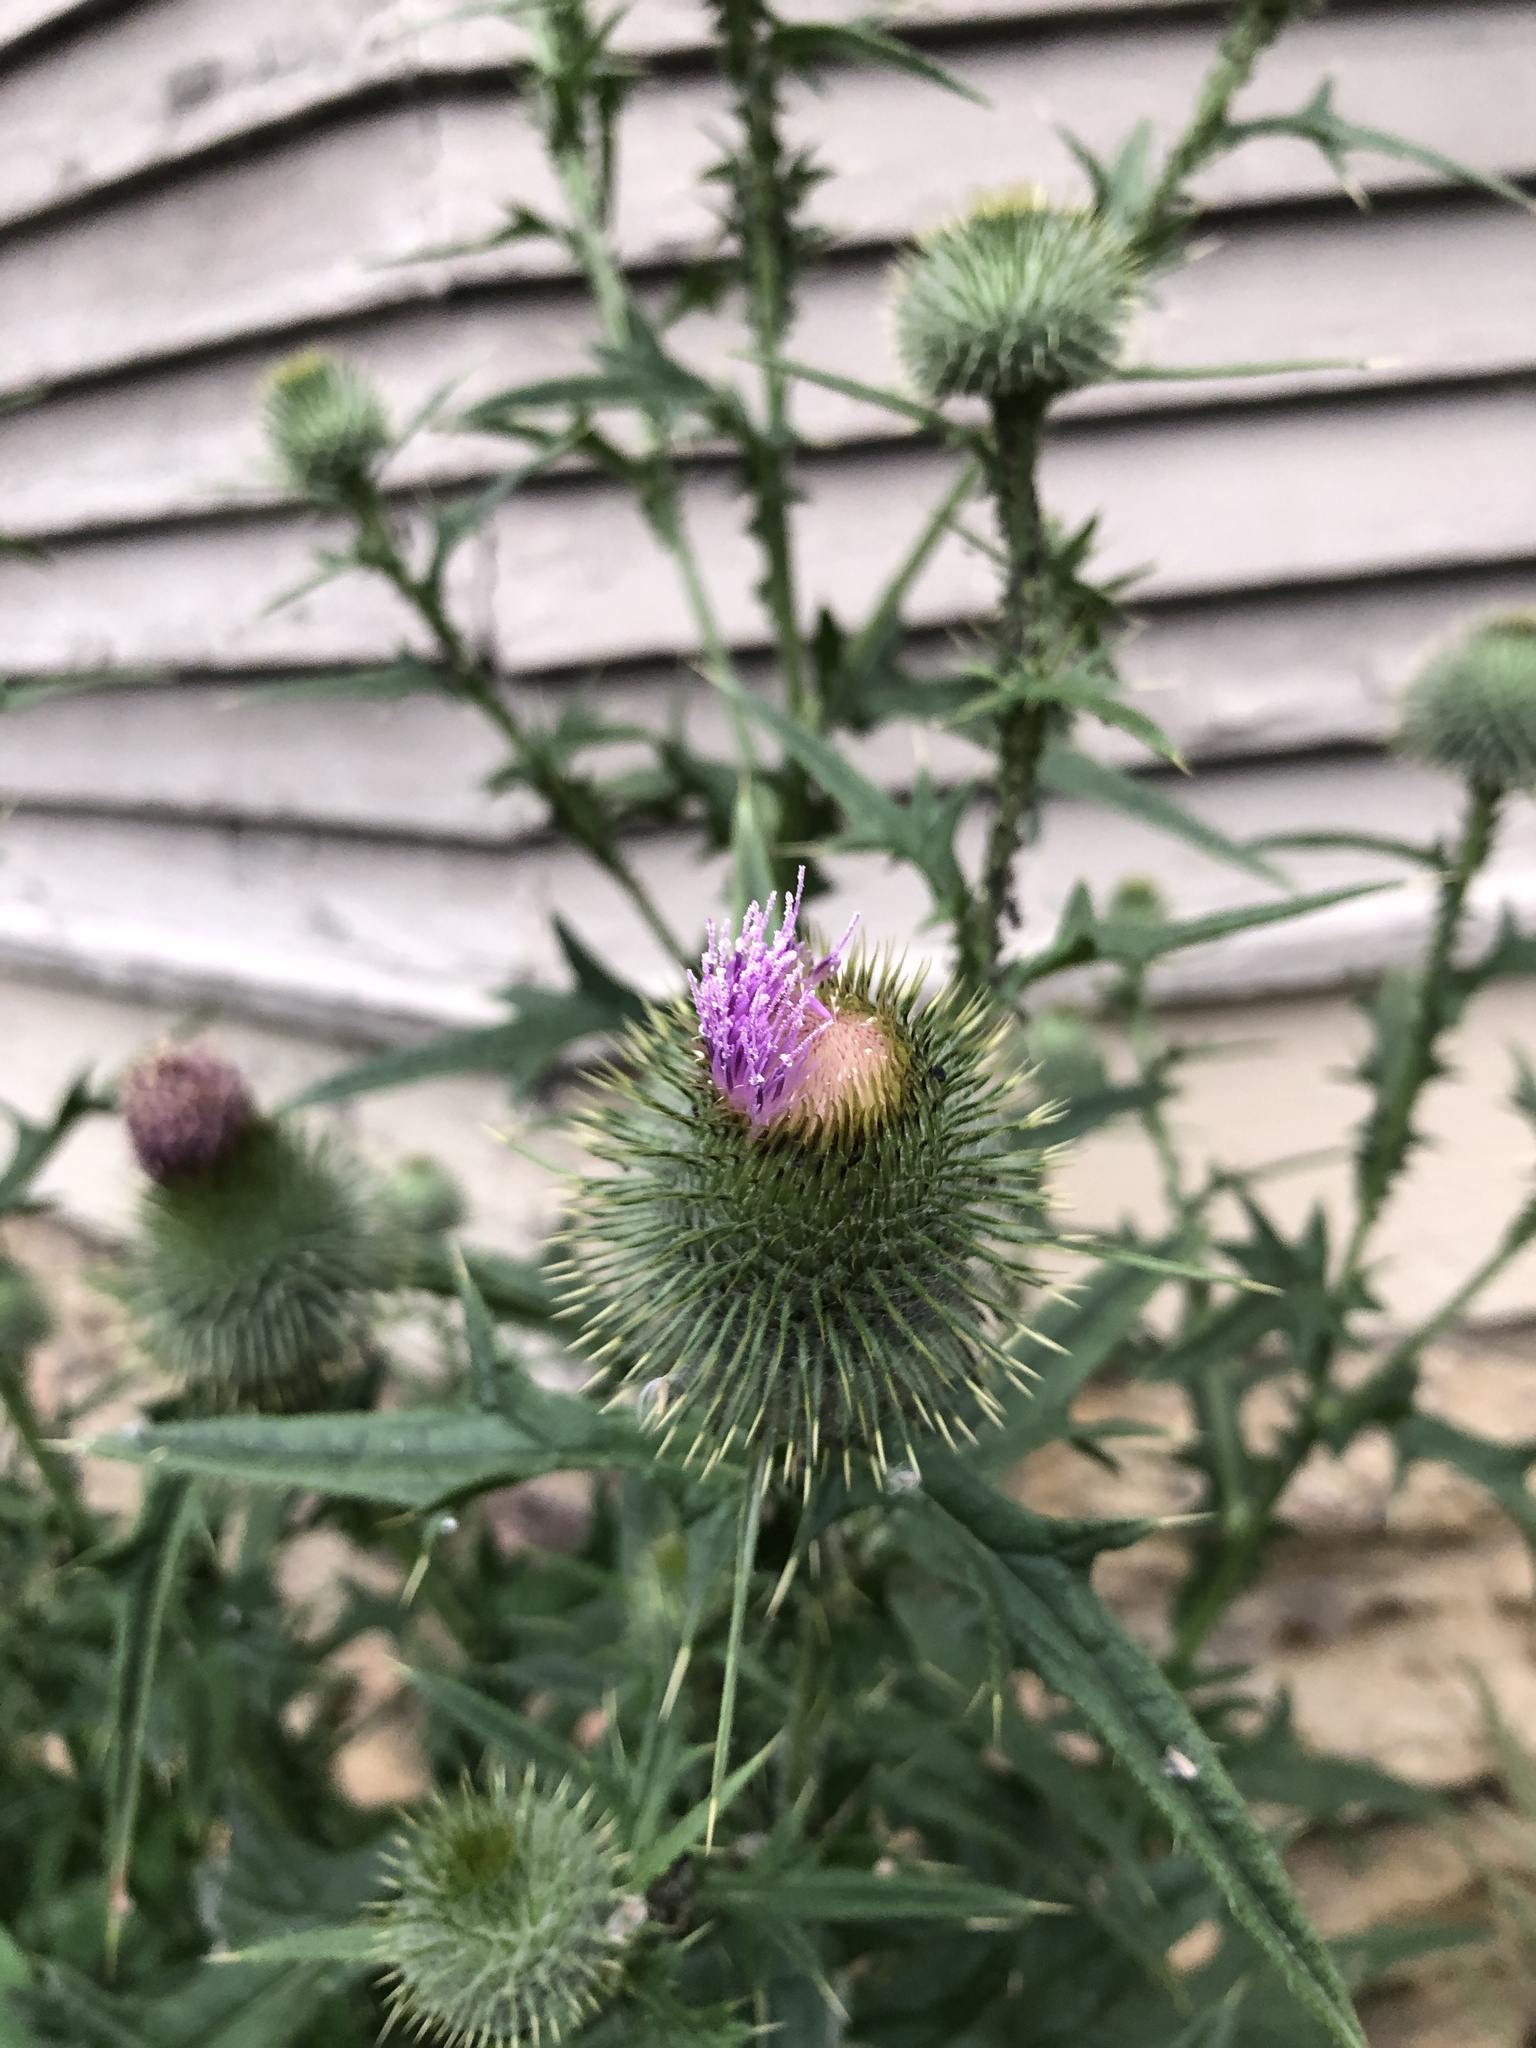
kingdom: Plantae
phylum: Tracheophyta
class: Magnoliopsida
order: Asterales
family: Asteraceae
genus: Cirsium
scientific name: Cirsium vulgare
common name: Bull thistle
